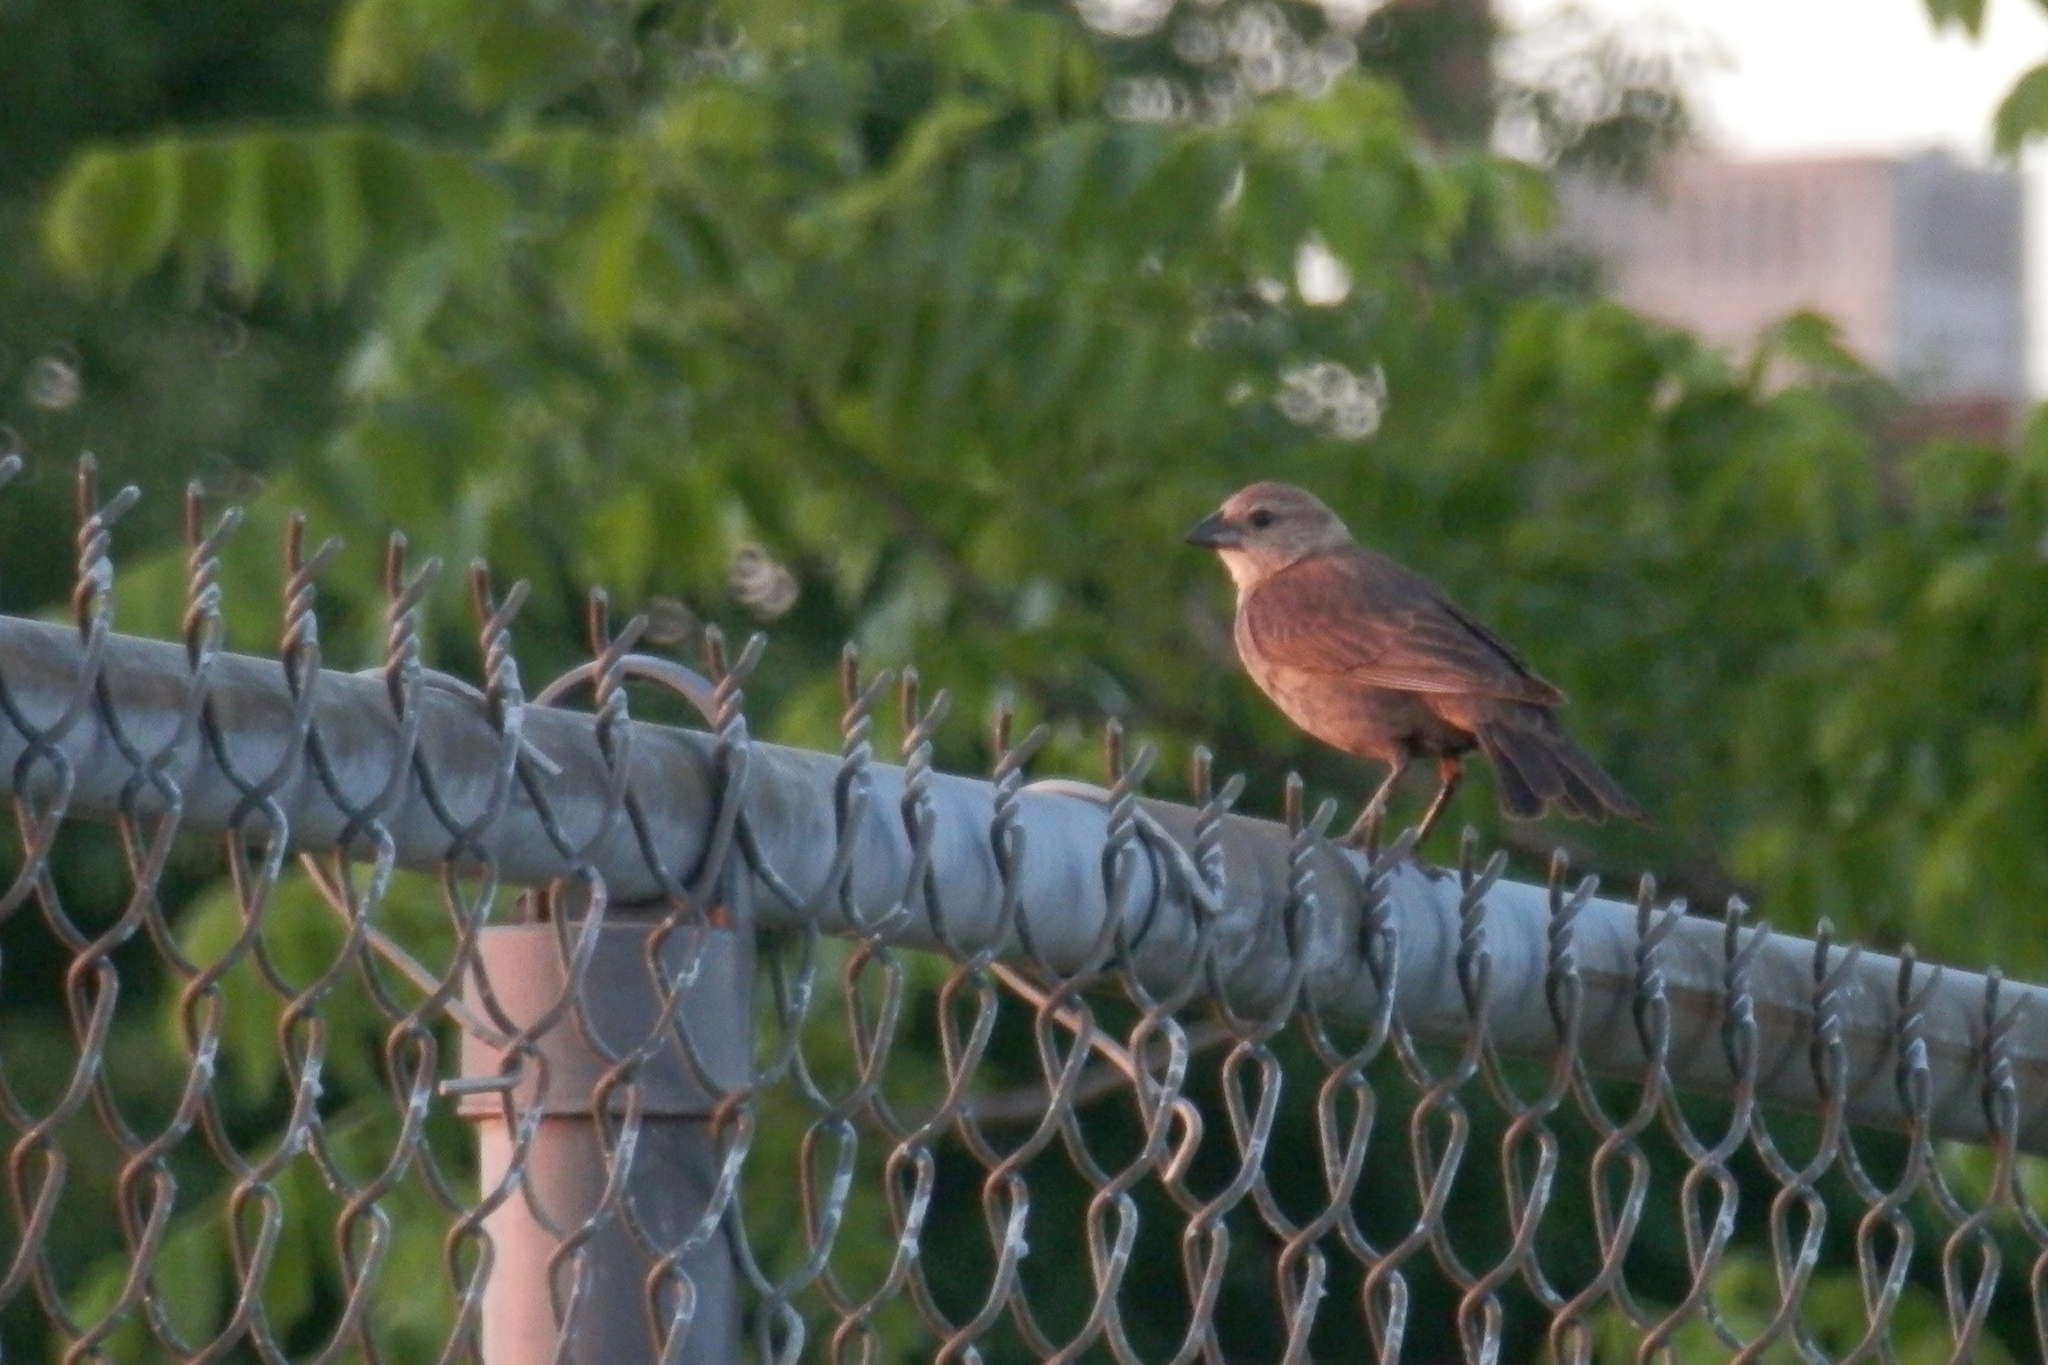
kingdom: Animalia
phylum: Chordata
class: Aves
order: Passeriformes
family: Icteridae
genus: Molothrus
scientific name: Molothrus ater
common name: Brown-headed cowbird
